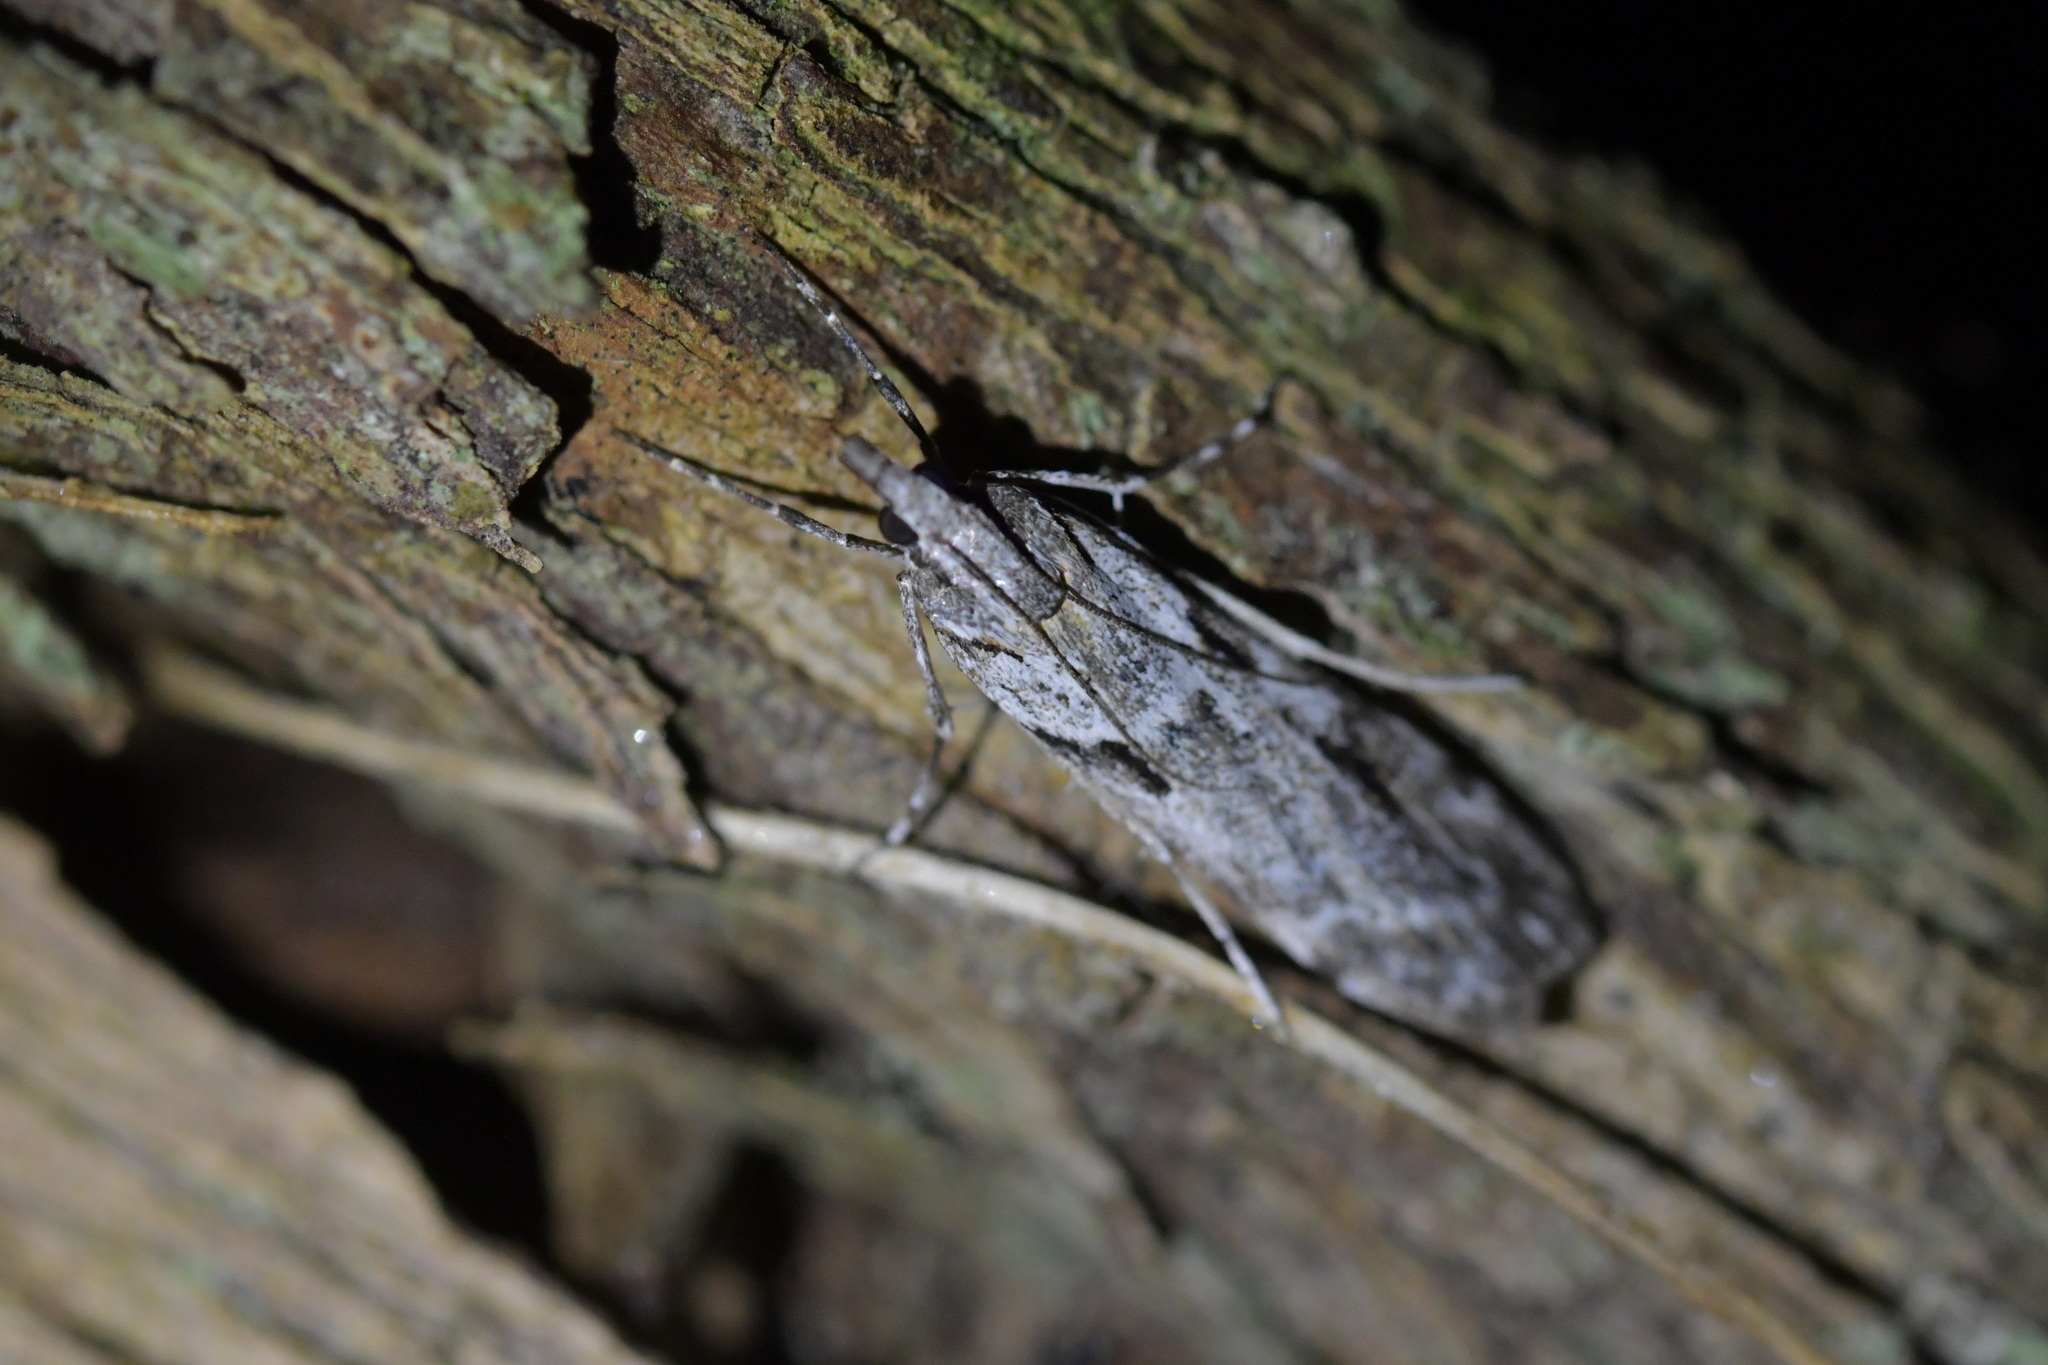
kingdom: Animalia
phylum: Arthropoda
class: Insecta
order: Lepidoptera
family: Crambidae
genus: Scoparia
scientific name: Scoparia halopis
